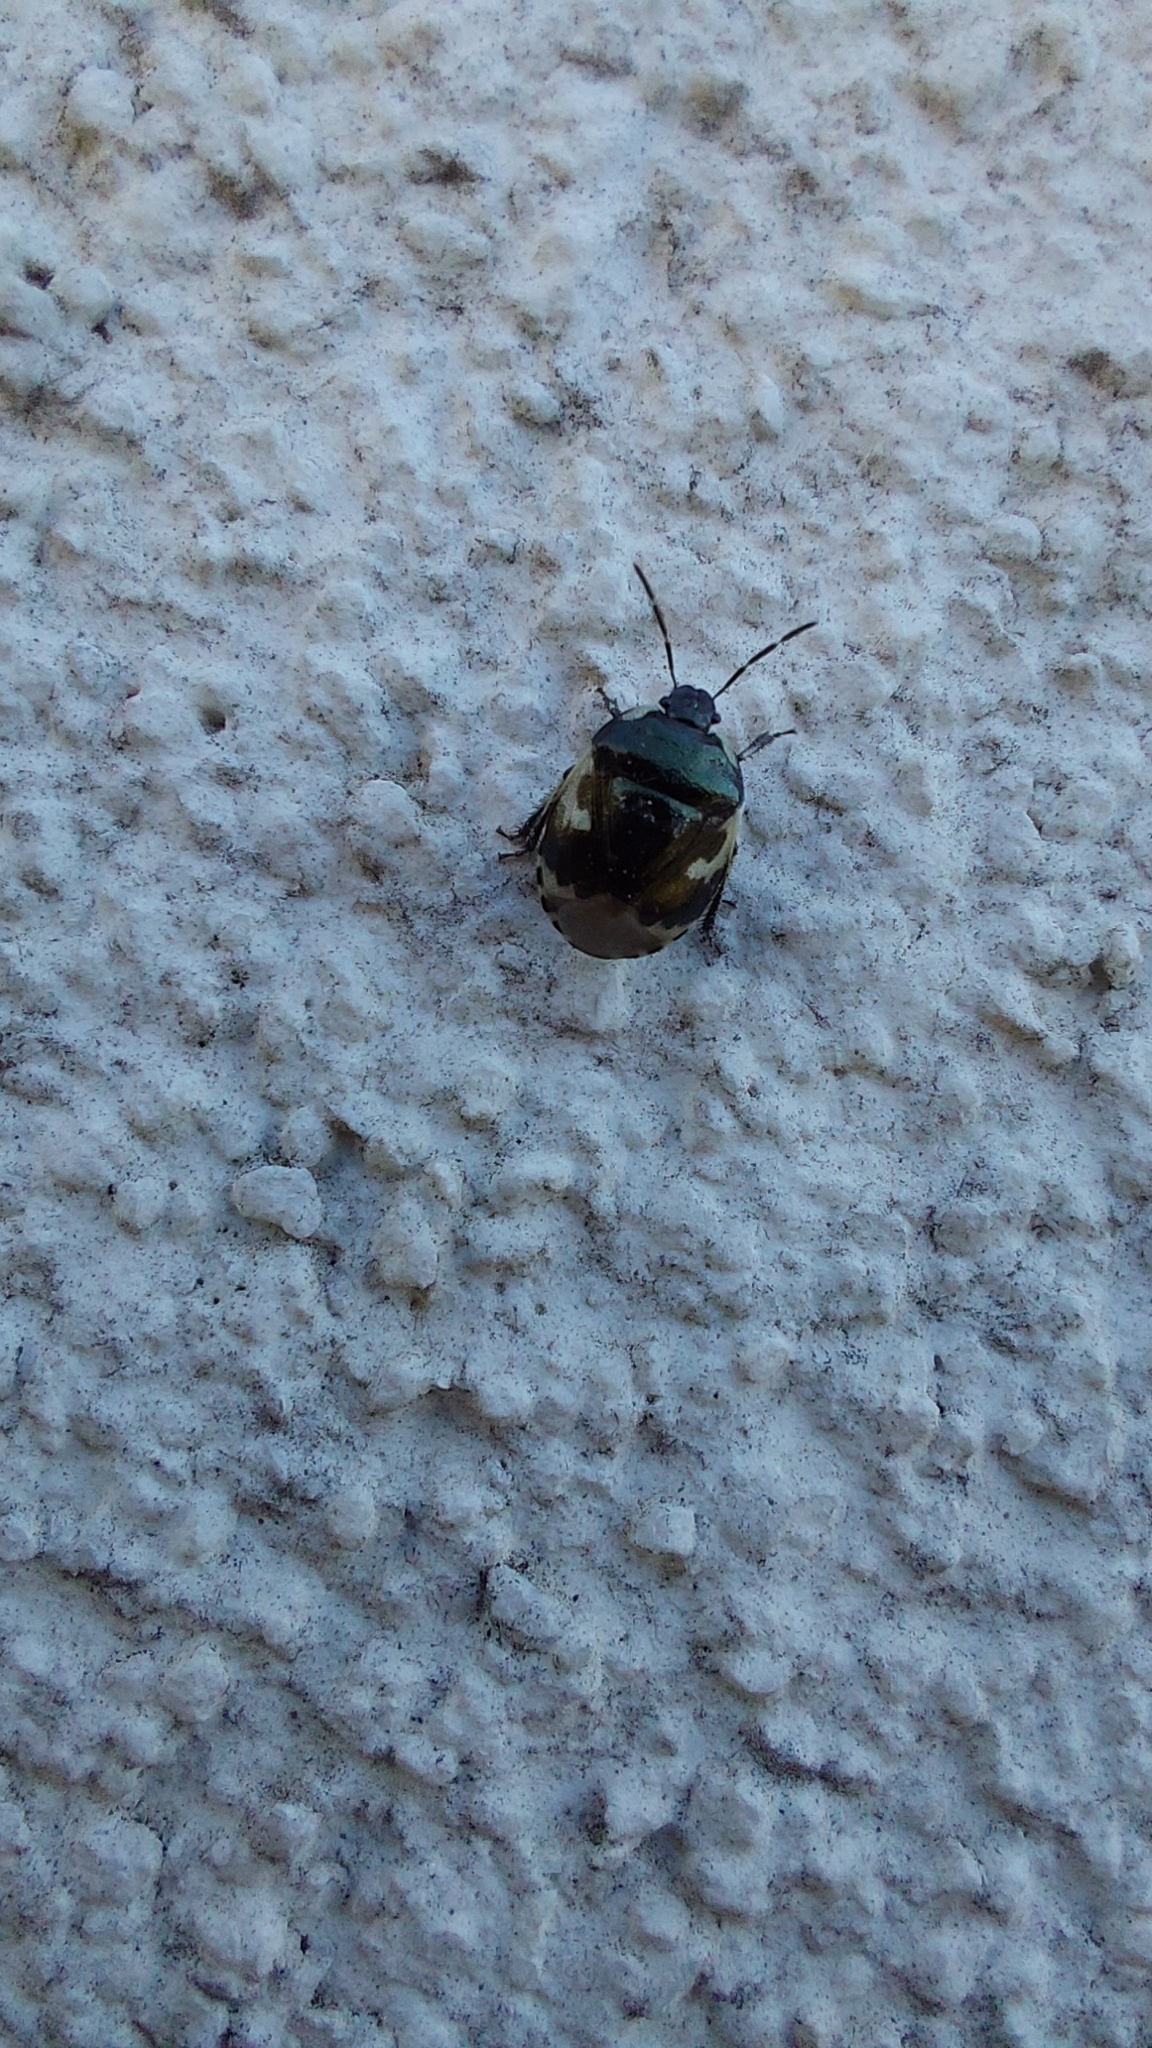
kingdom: Animalia
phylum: Arthropoda
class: Insecta
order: Hemiptera
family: Cydnidae
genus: Tritomegas
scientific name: Tritomegas bicolor
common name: Pied shieldbug
